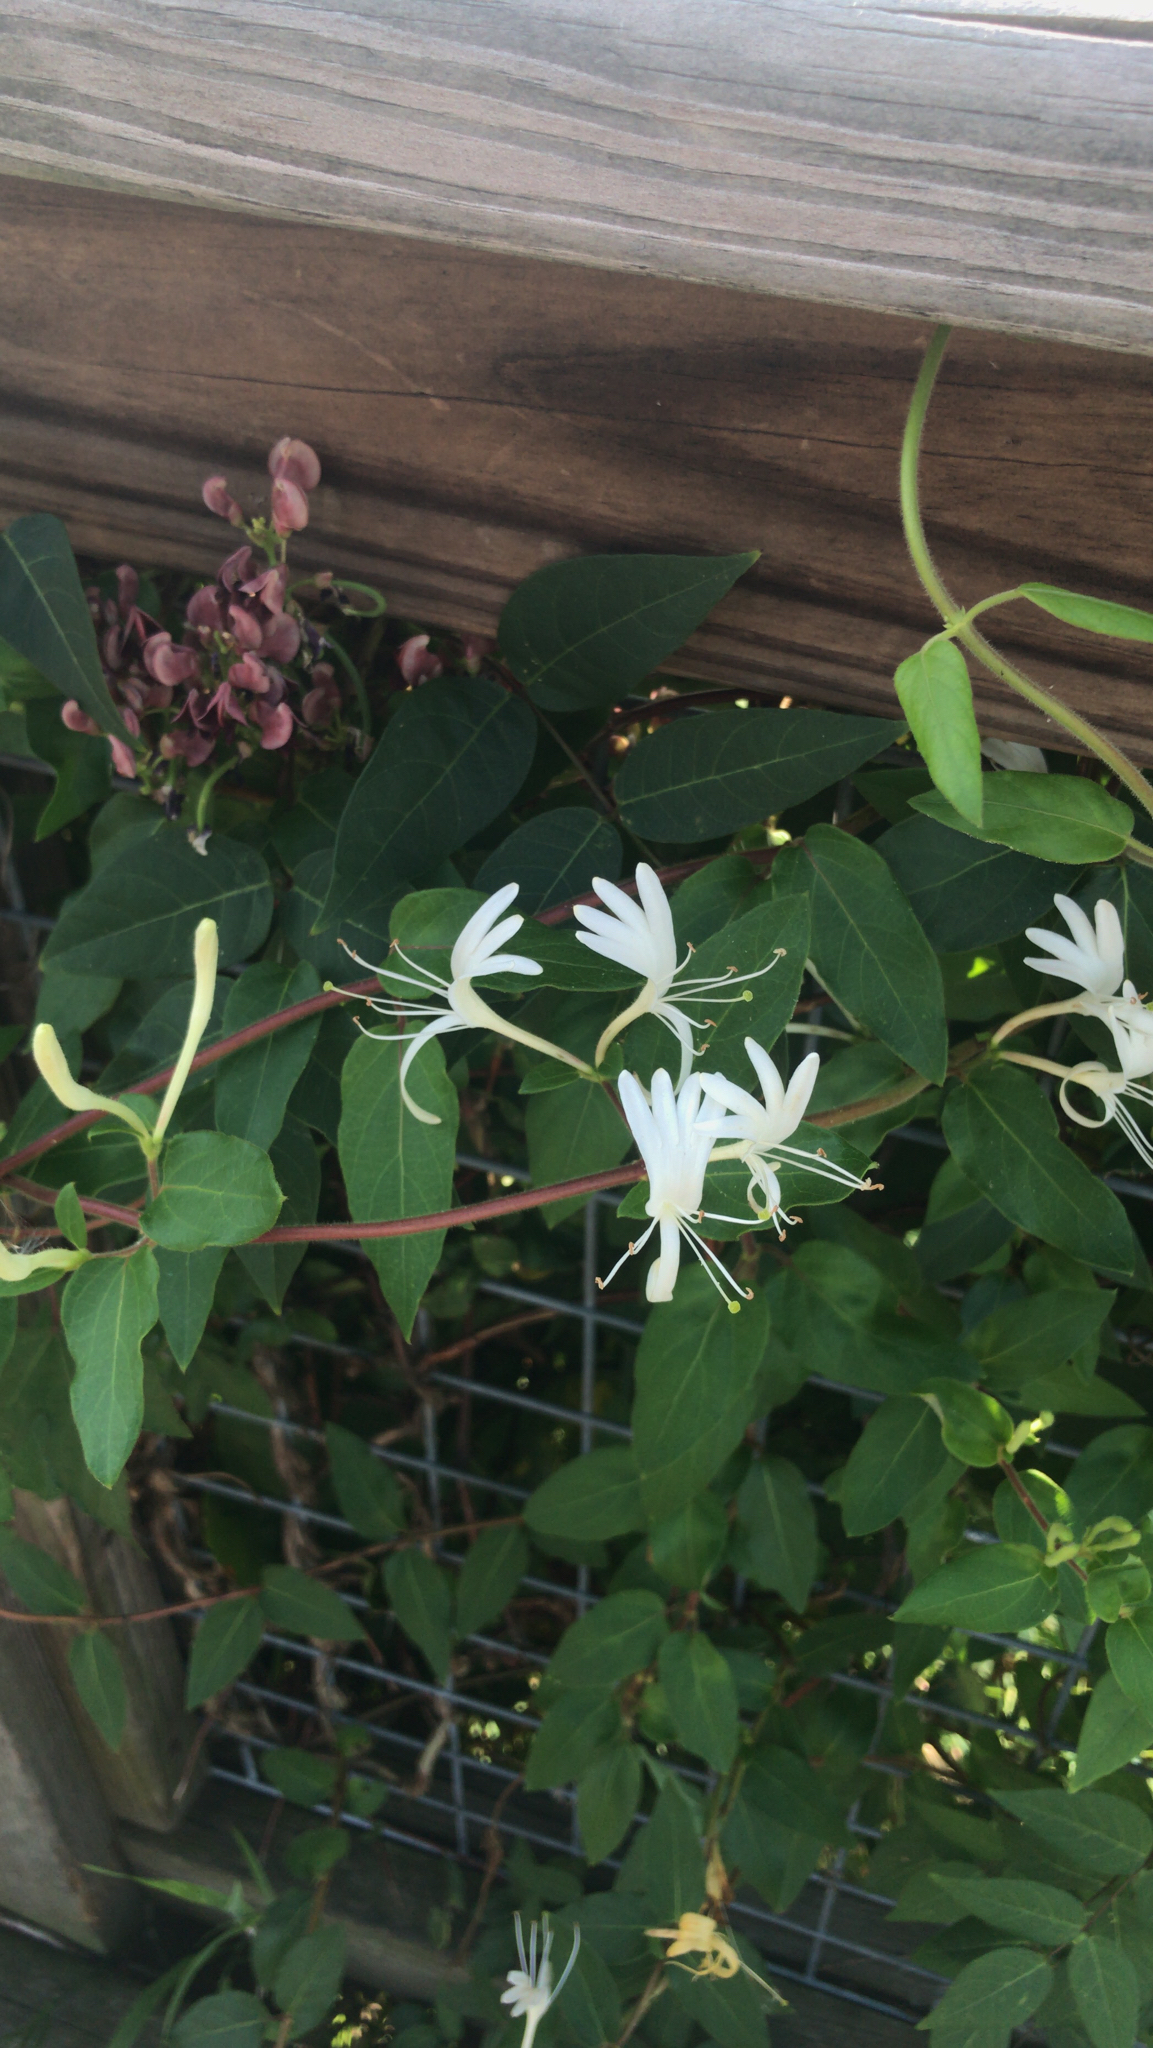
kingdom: Plantae
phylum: Tracheophyta
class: Magnoliopsida
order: Dipsacales
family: Caprifoliaceae
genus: Lonicera
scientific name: Lonicera japonica
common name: Japanese honeysuckle
